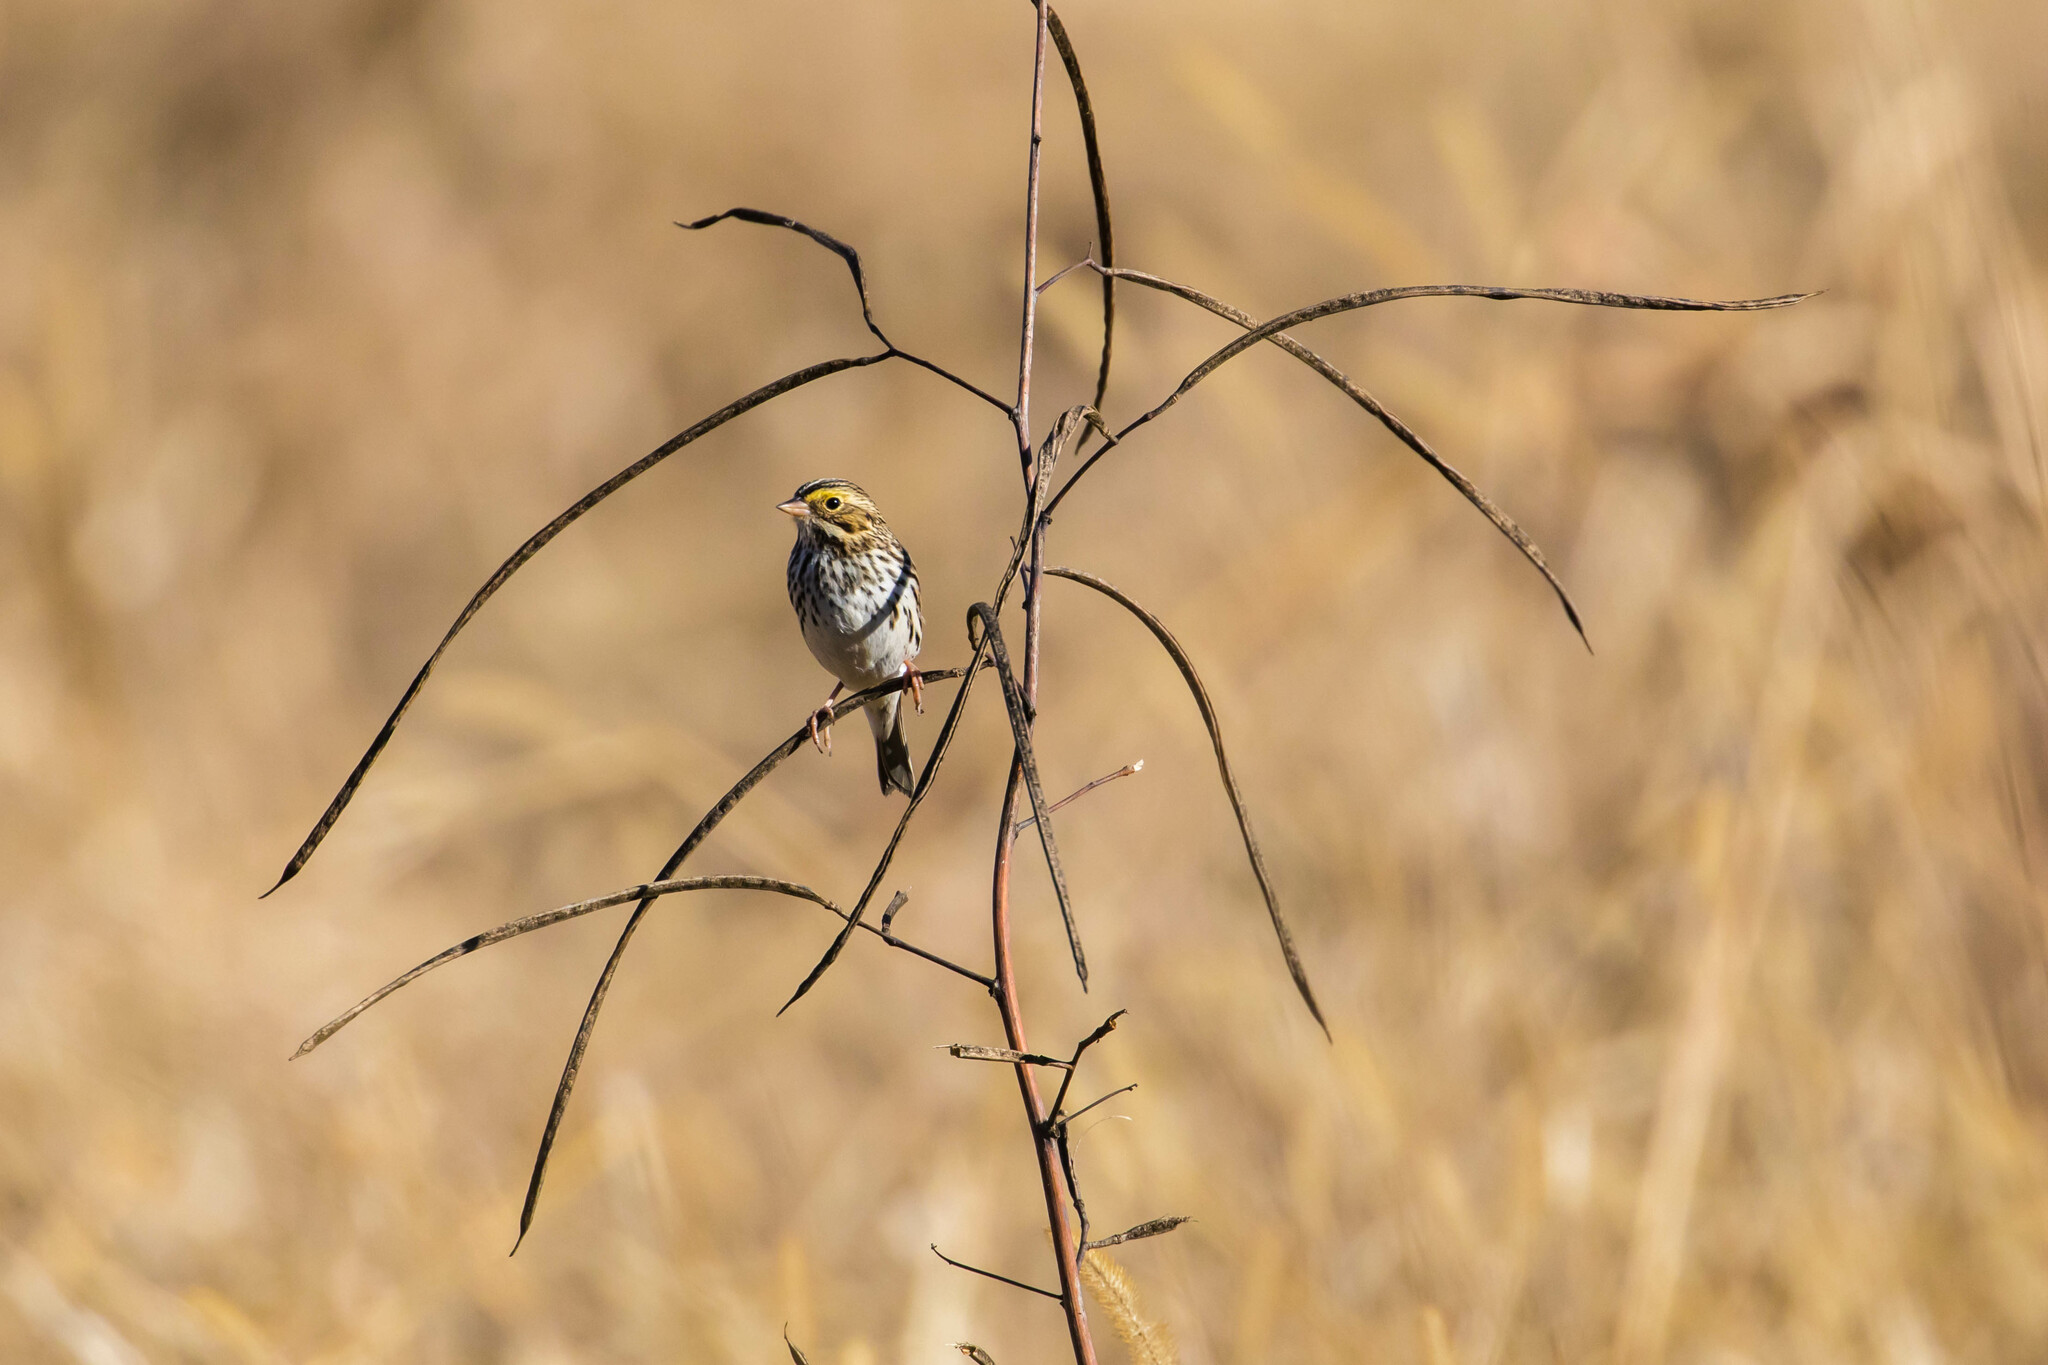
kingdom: Animalia
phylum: Chordata
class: Aves
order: Passeriformes
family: Passerellidae
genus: Passerculus
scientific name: Passerculus sandwichensis
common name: Savannah sparrow
